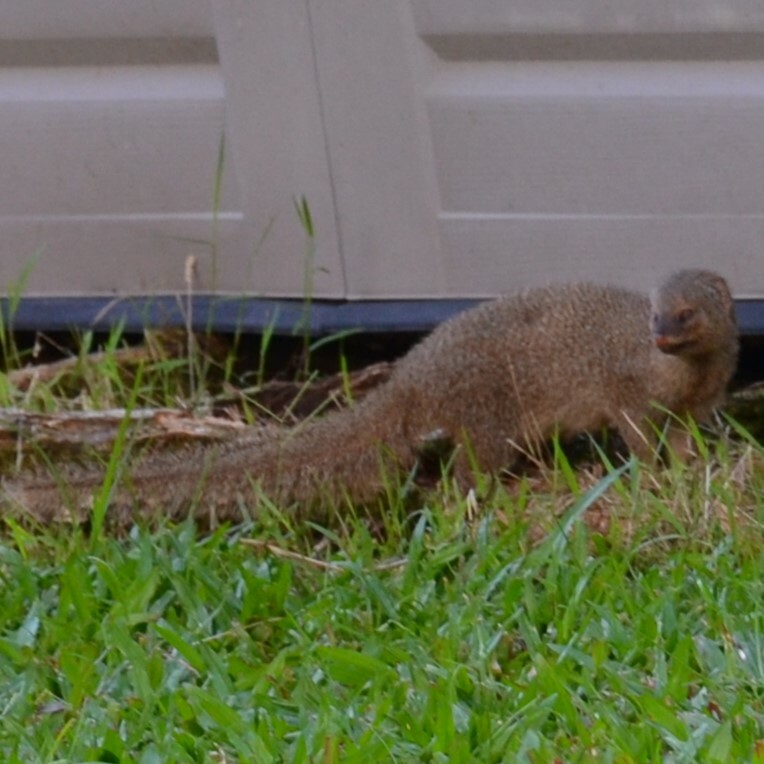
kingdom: Animalia
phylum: Chordata
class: Mammalia
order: Carnivora
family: Herpestidae
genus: Herpestes
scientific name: Herpestes javanicus
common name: Small asian mongoose
